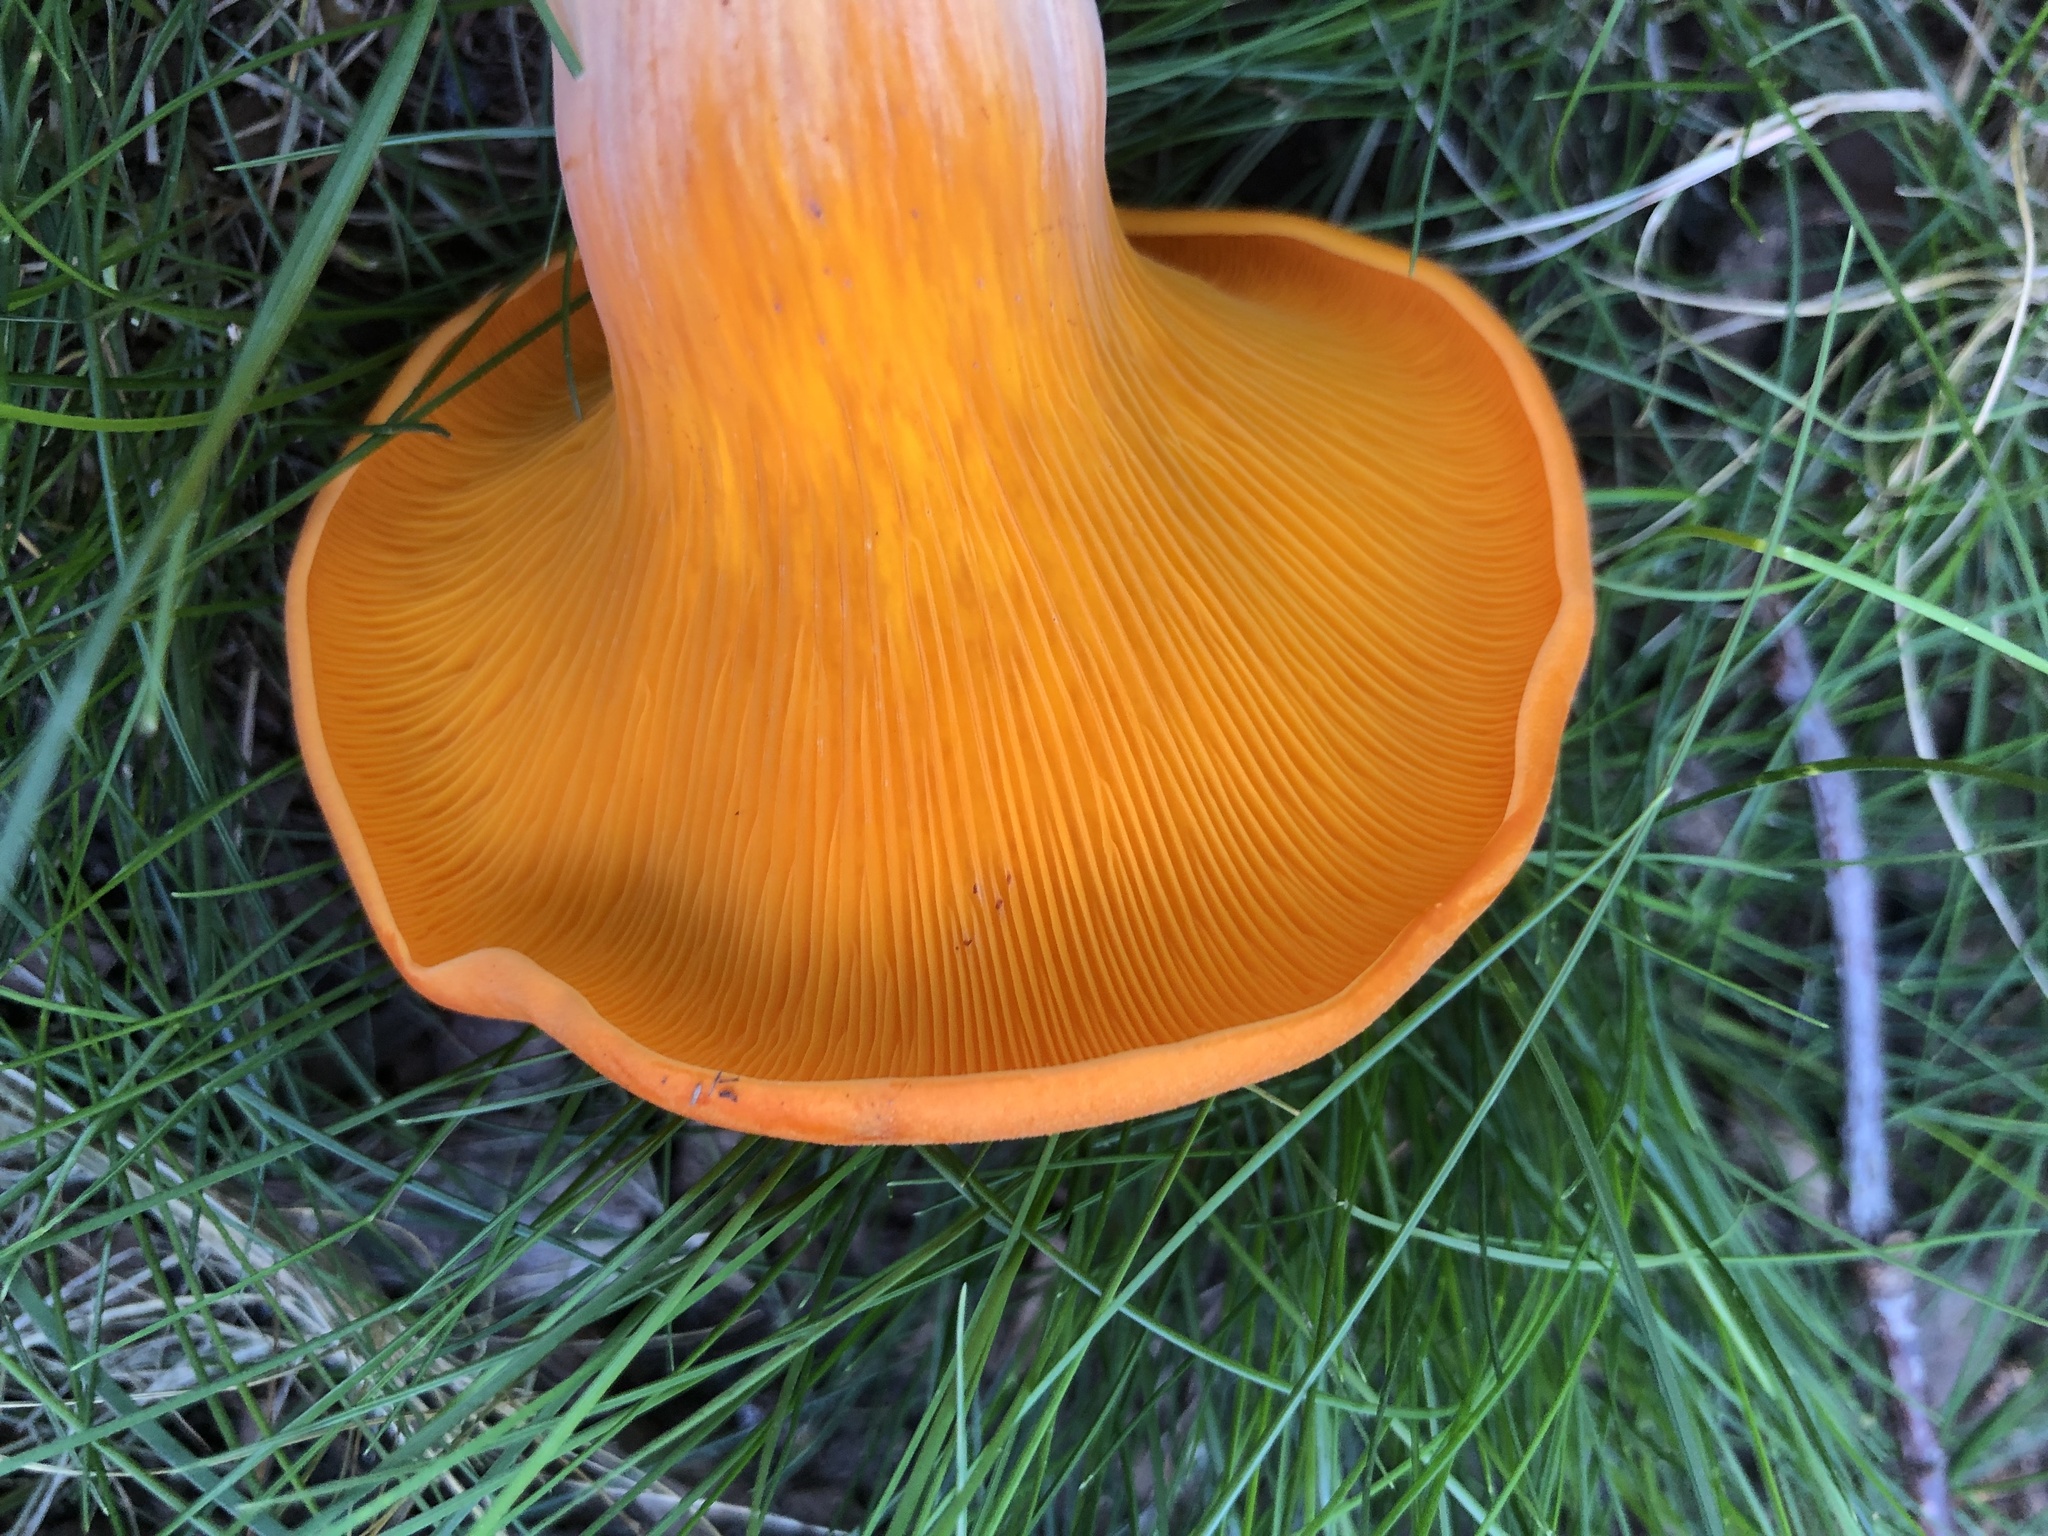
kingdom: Fungi
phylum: Basidiomycota
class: Agaricomycetes
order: Agaricales
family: Omphalotaceae
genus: Omphalotus
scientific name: Omphalotus illudens
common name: Jack o lantern
